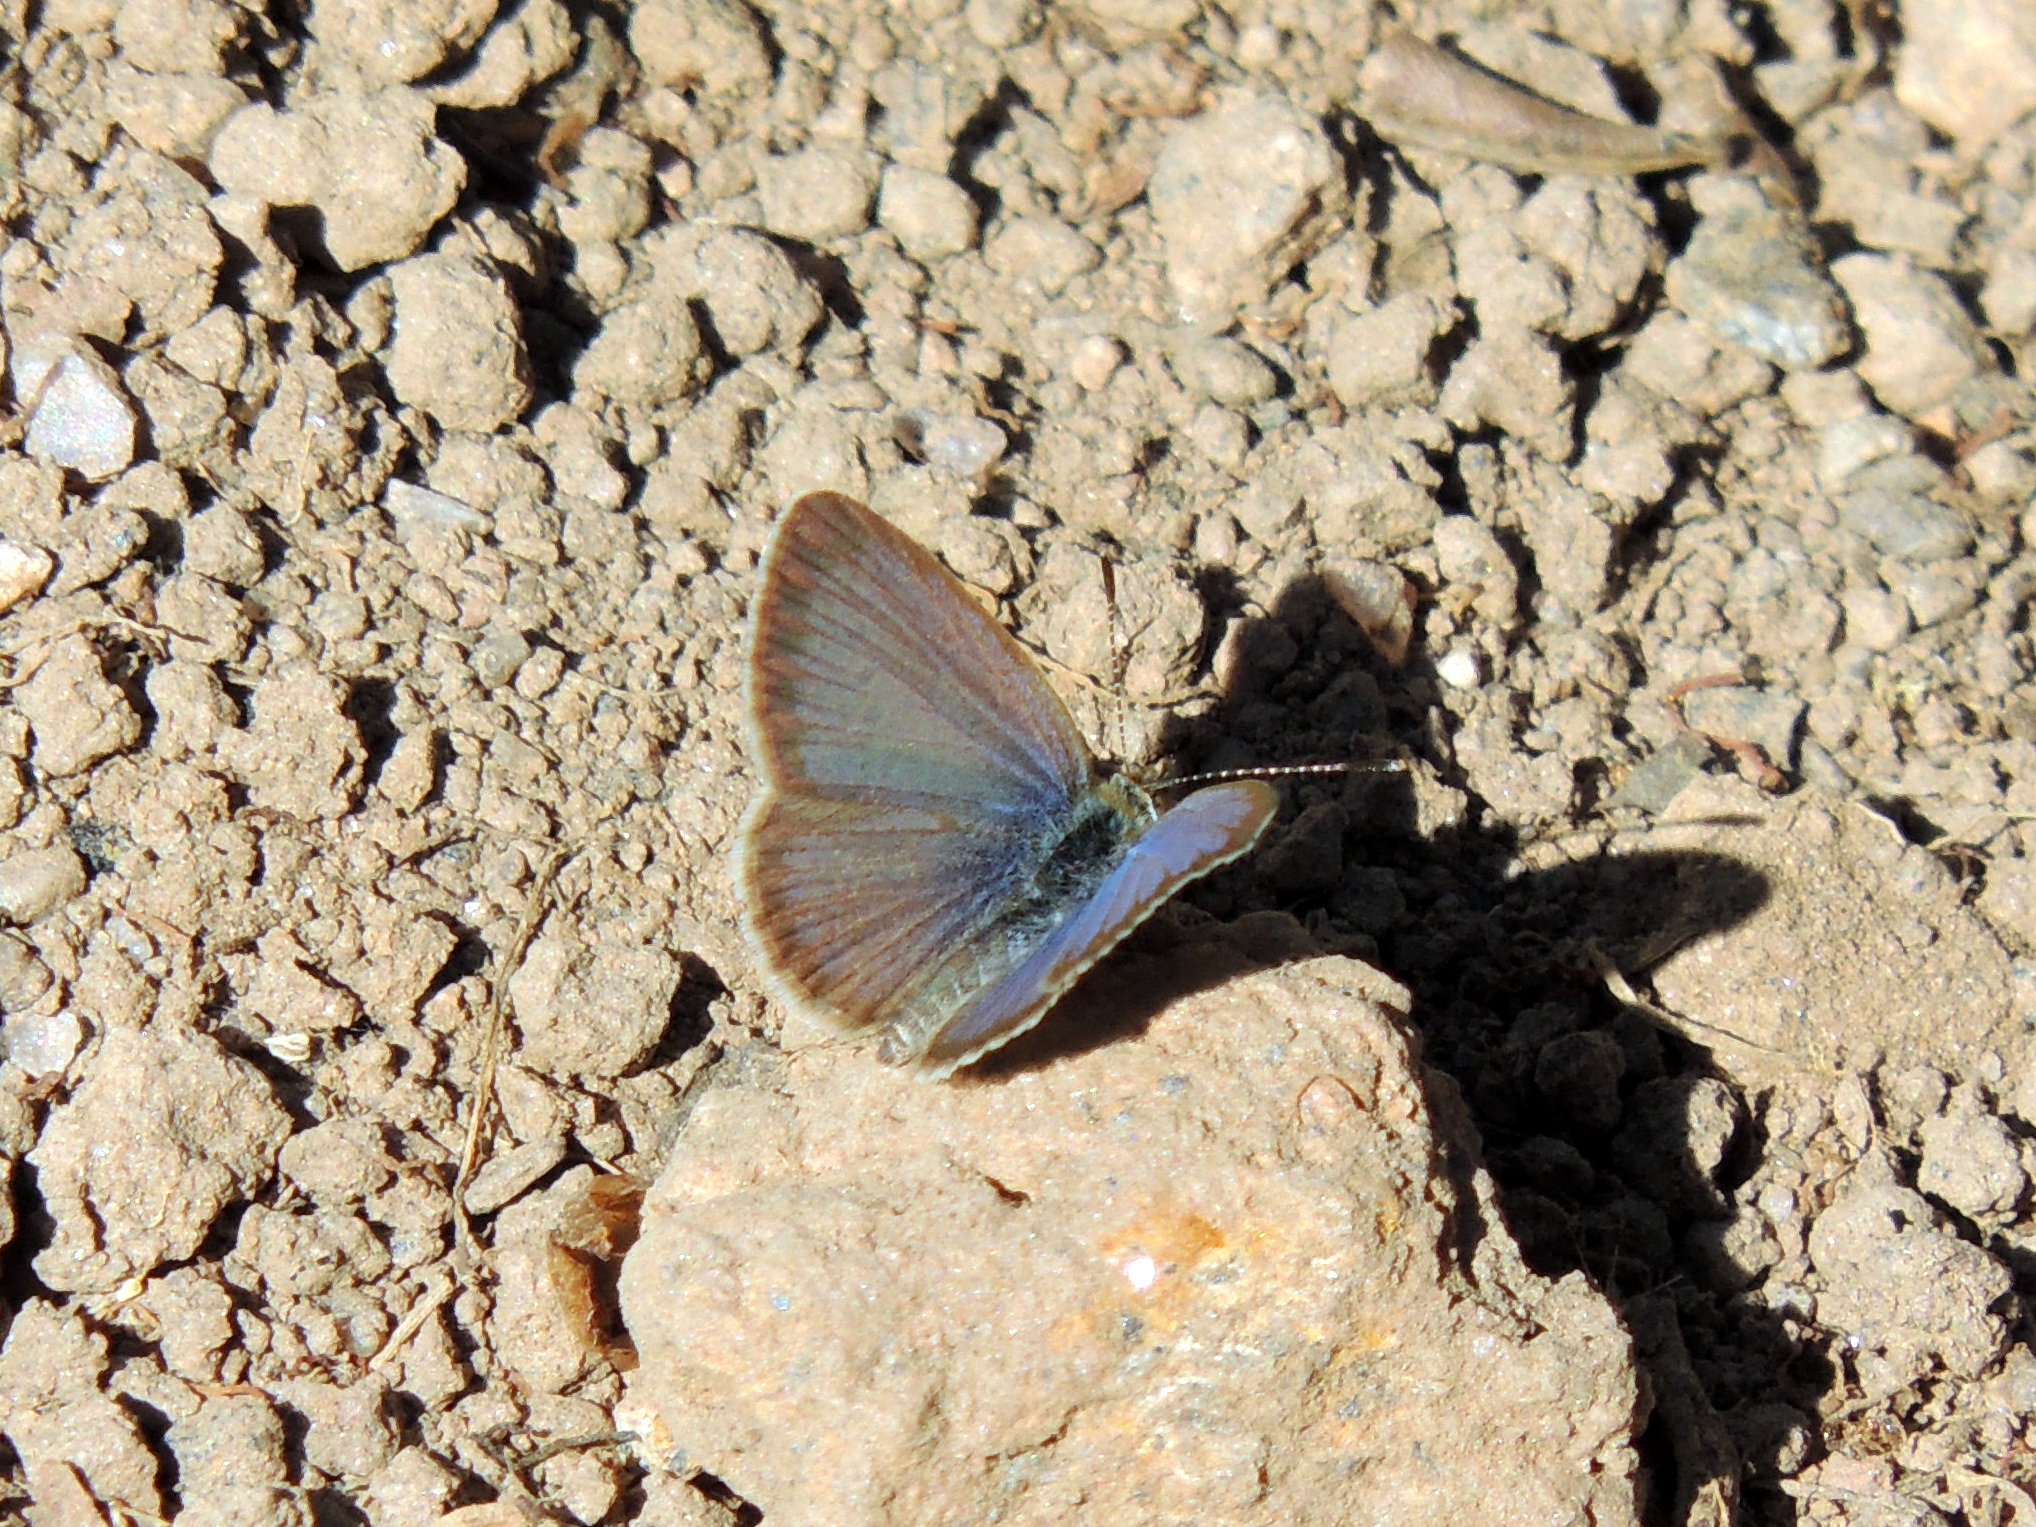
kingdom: Animalia
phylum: Arthropoda
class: Insecta
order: Lepidoptera
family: Lycaenidae
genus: Zizeeria
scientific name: Zizeeria knysna
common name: African grass blue
